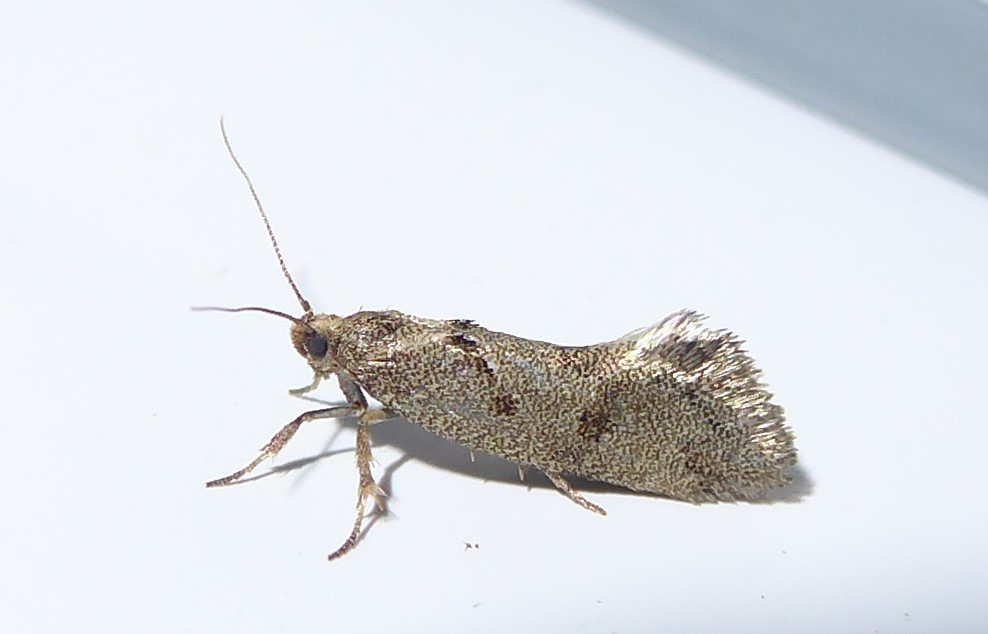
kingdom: Animalia
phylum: Arthropoda
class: Insecta
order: Lepidoptera
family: Oecophoridae
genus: Tingena
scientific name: Tingena brachyacma
